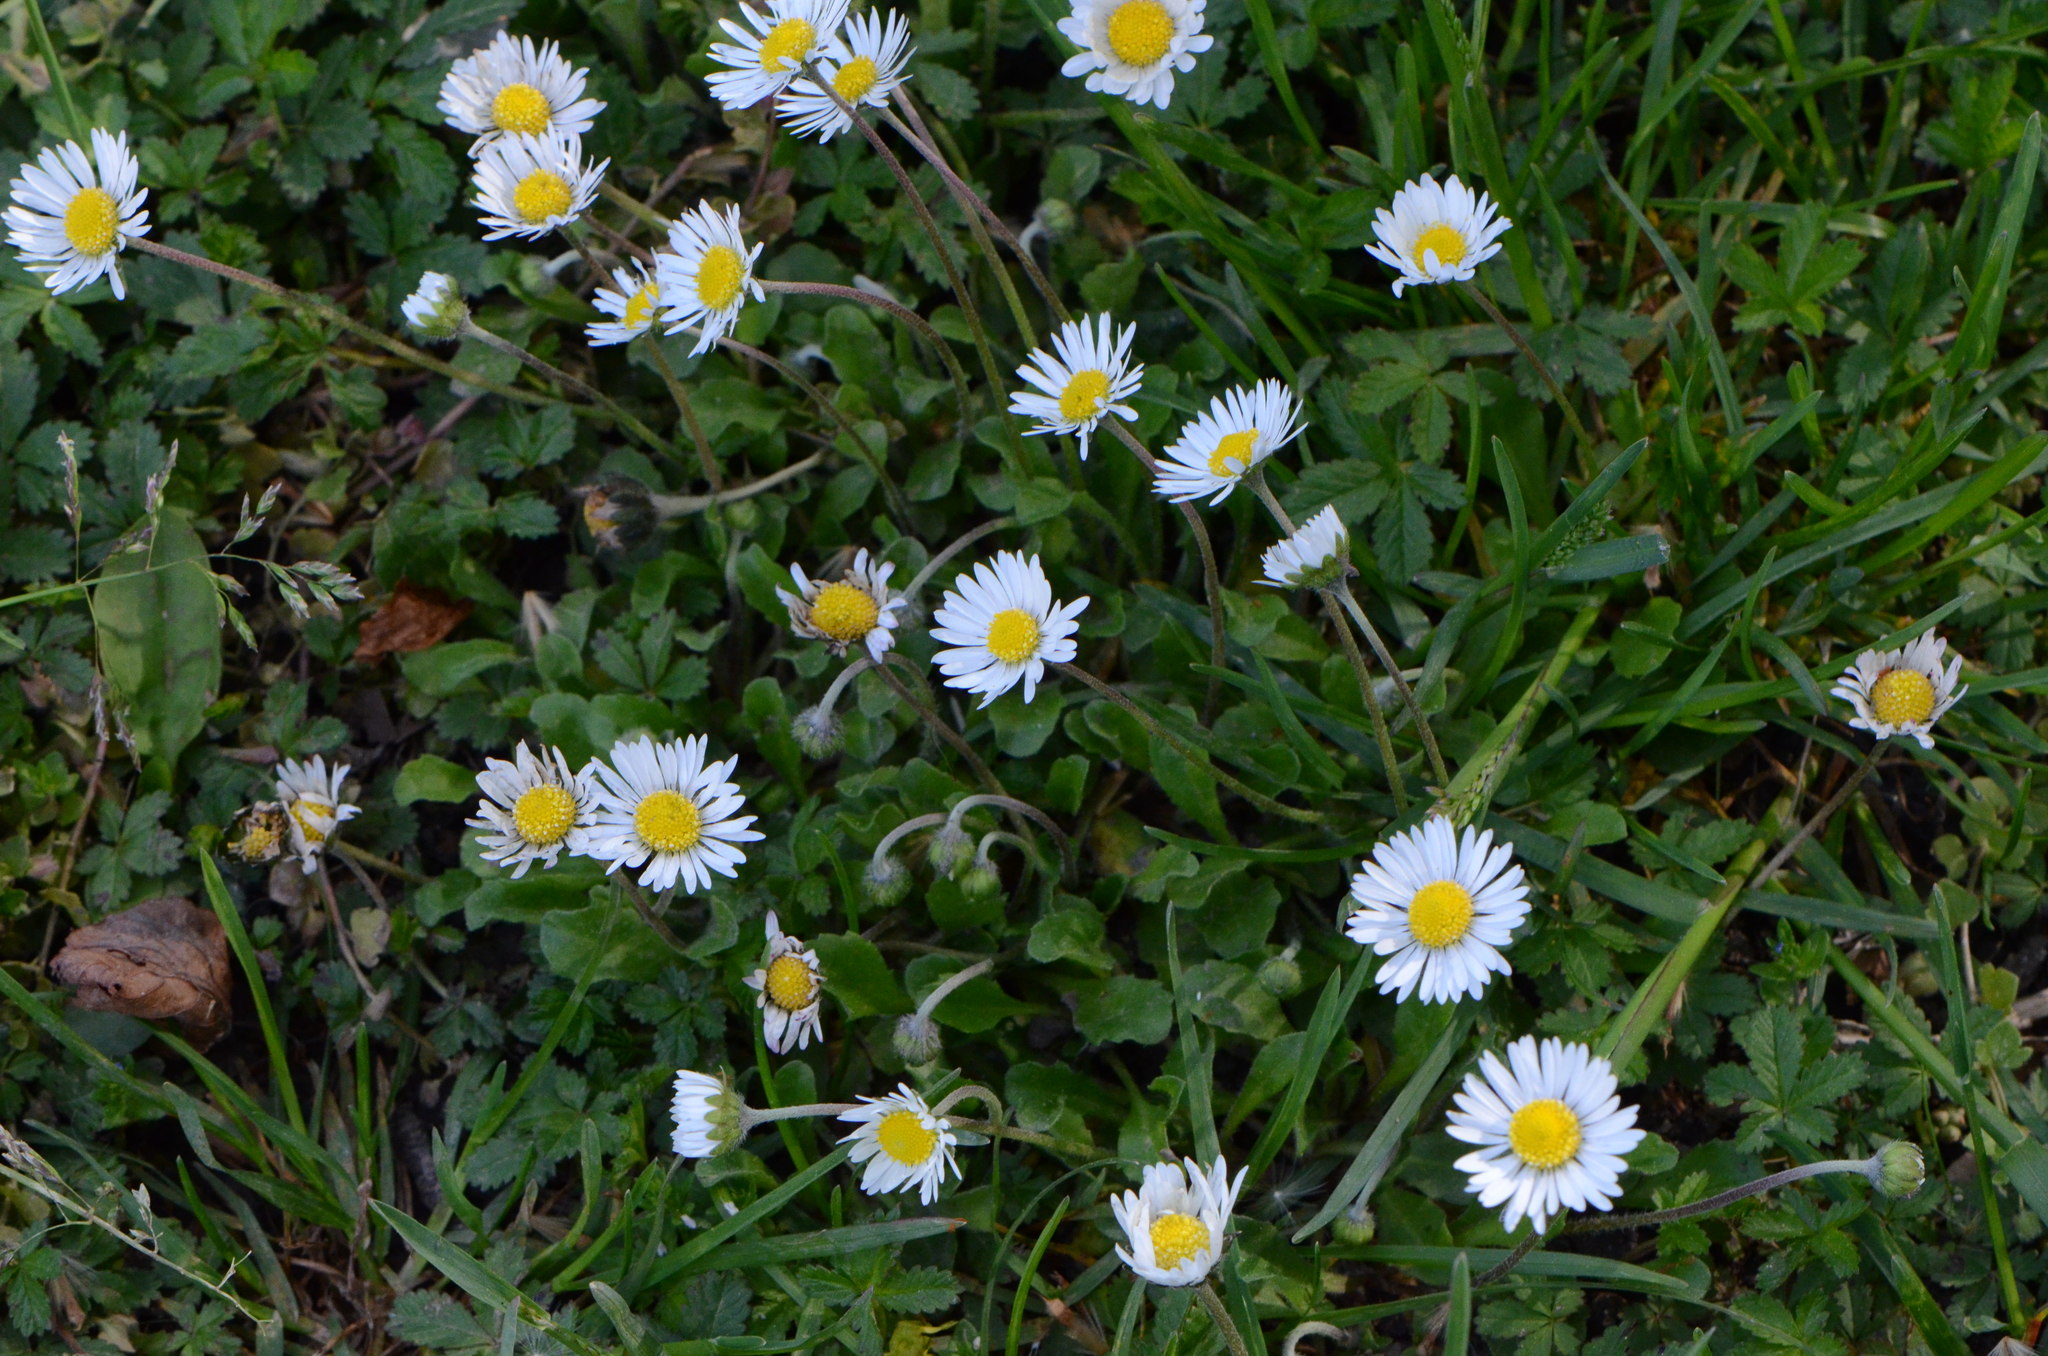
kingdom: Plantae
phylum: Tracheophyta
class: Magnoliopsida
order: Asterales
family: Asteraceae
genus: Bellis
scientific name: Bellis perennis
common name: Lawndaisy
